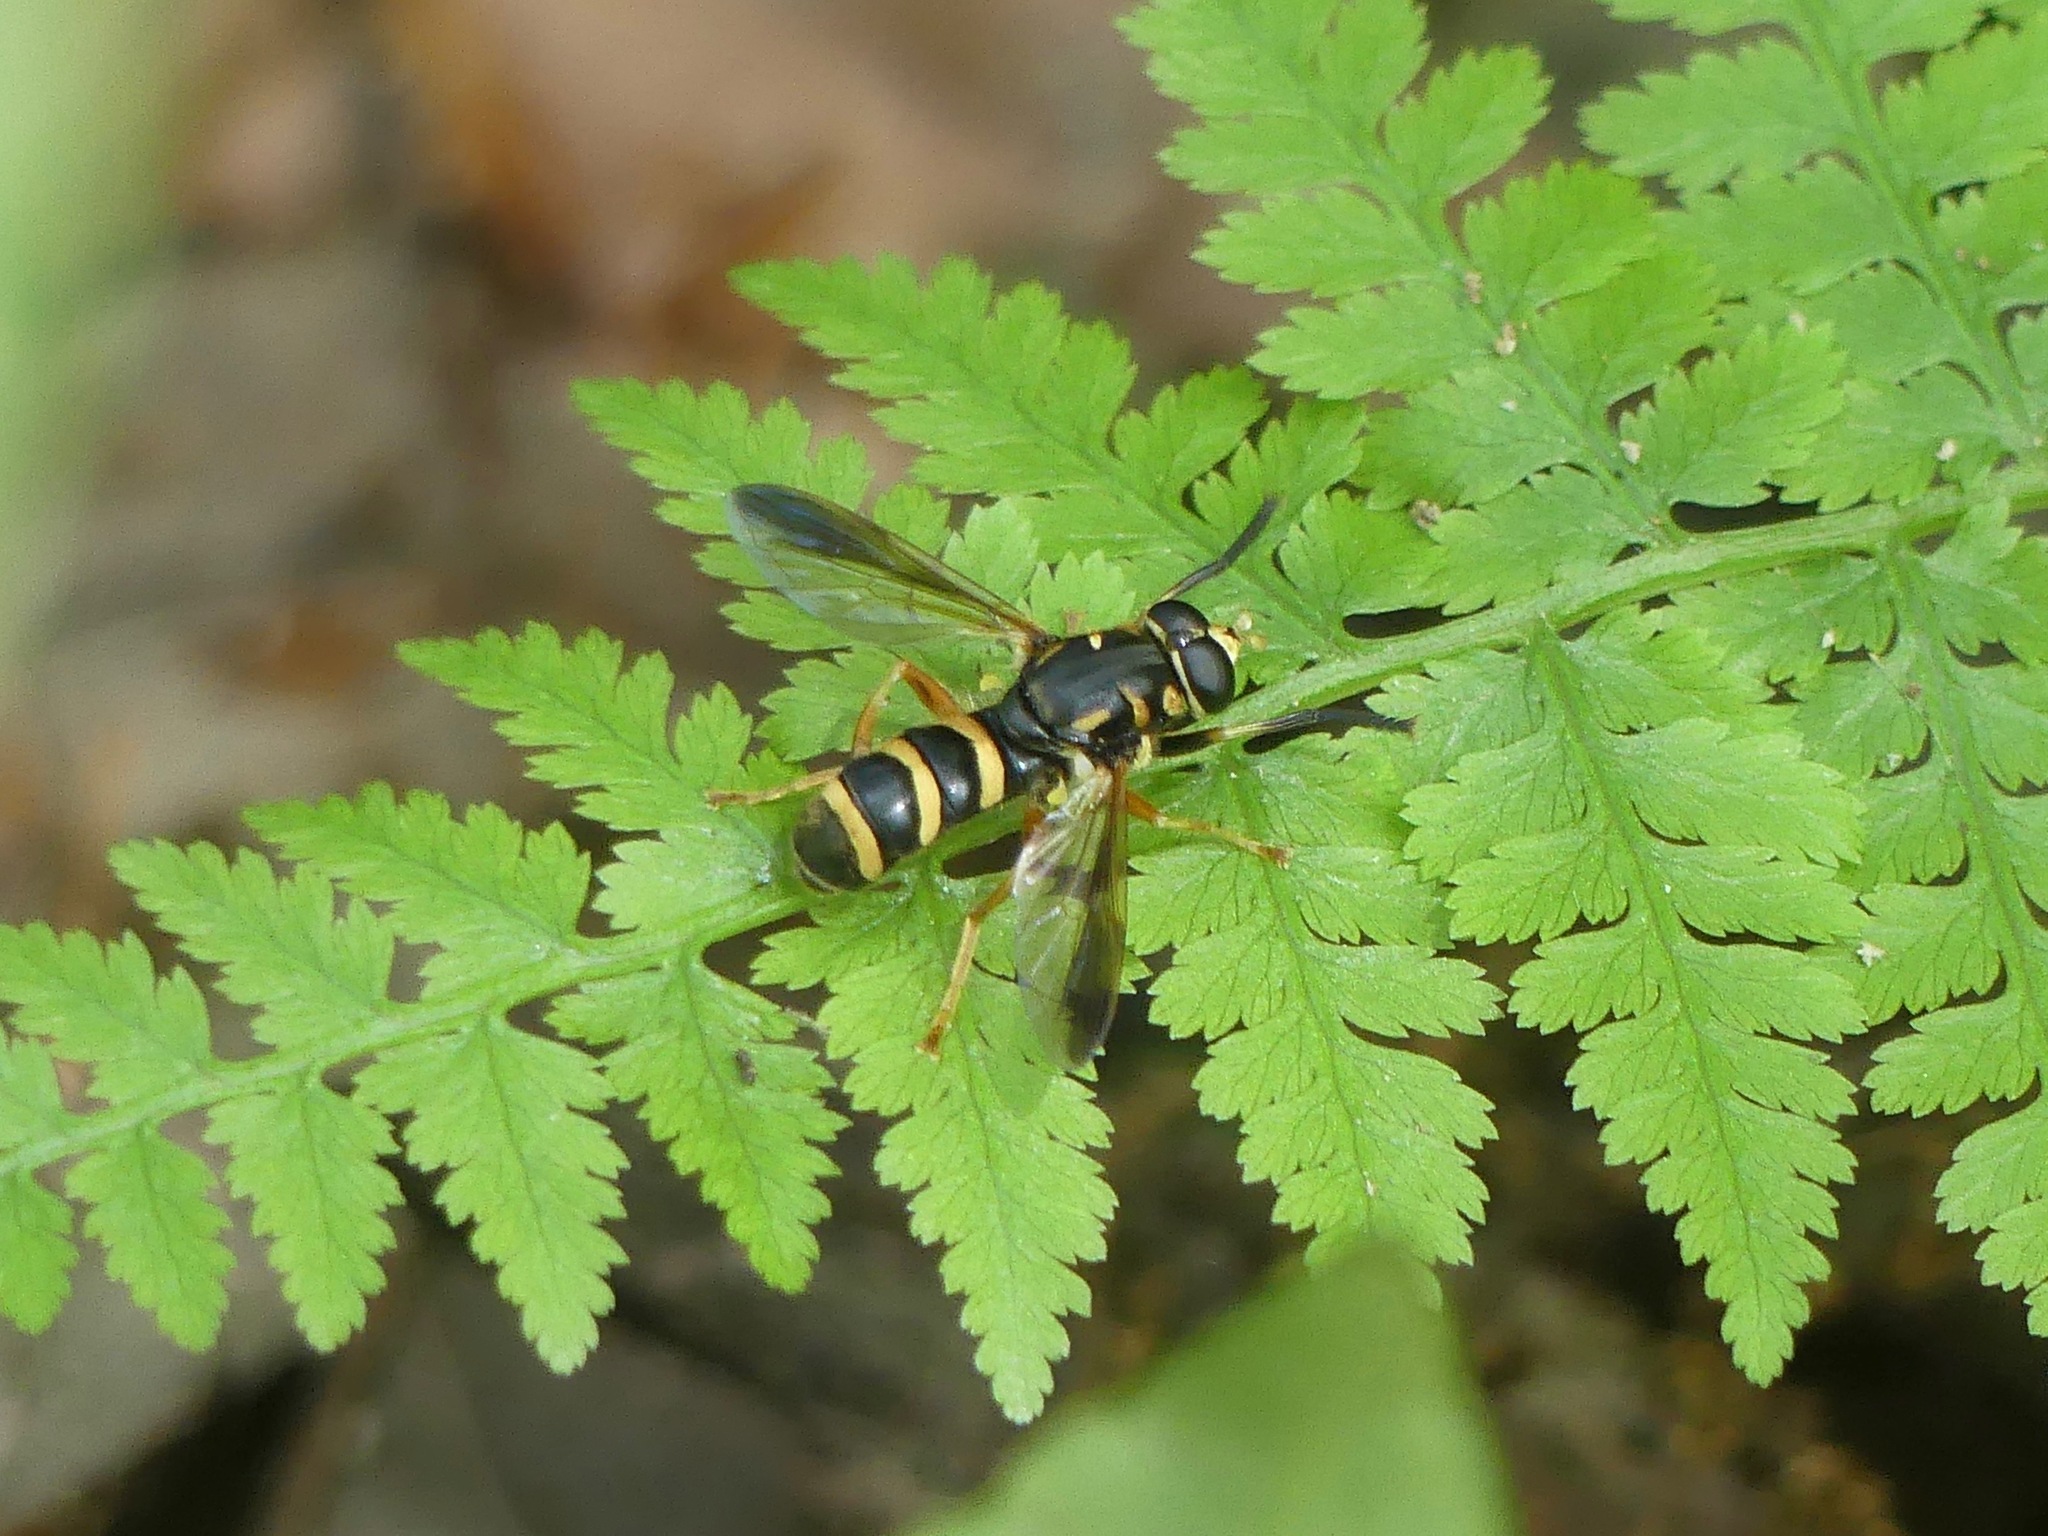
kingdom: Animalia
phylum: Arthropoda
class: Insecta
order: Diptera
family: Syrphidae
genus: Temnostoma
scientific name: Temnostoma trifasciatum
